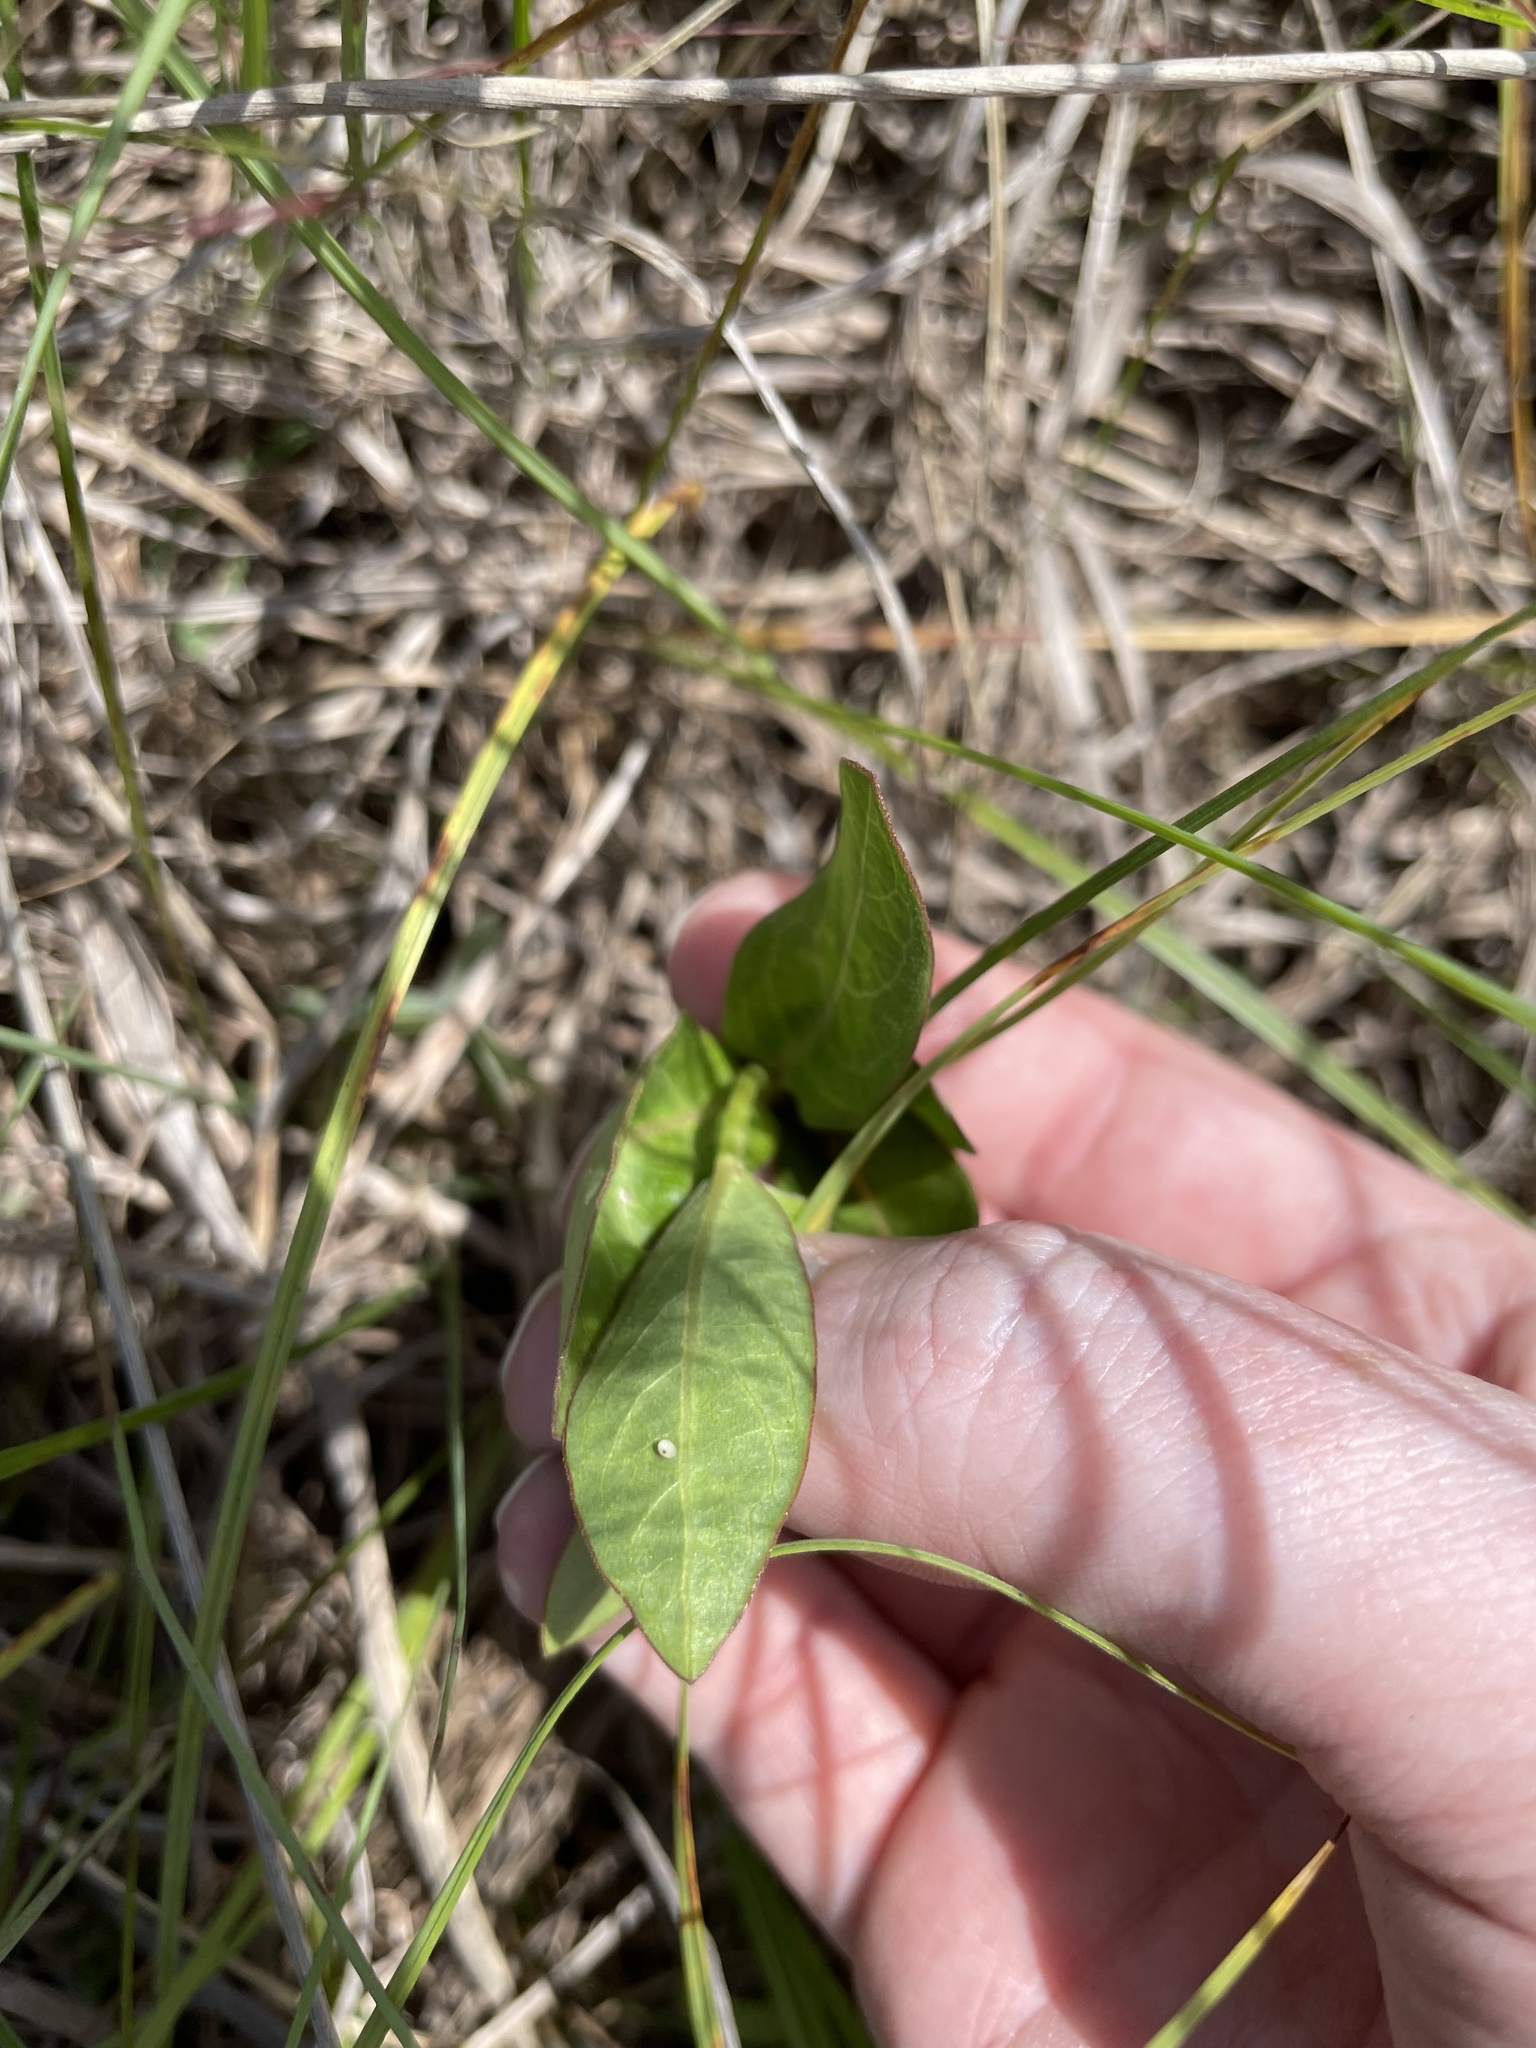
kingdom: Animalia
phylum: Arthropoda
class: Insecta
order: Lepidoptera
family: Nymphalidae
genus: Danaus
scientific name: Danaus plexippus
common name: Monarch
